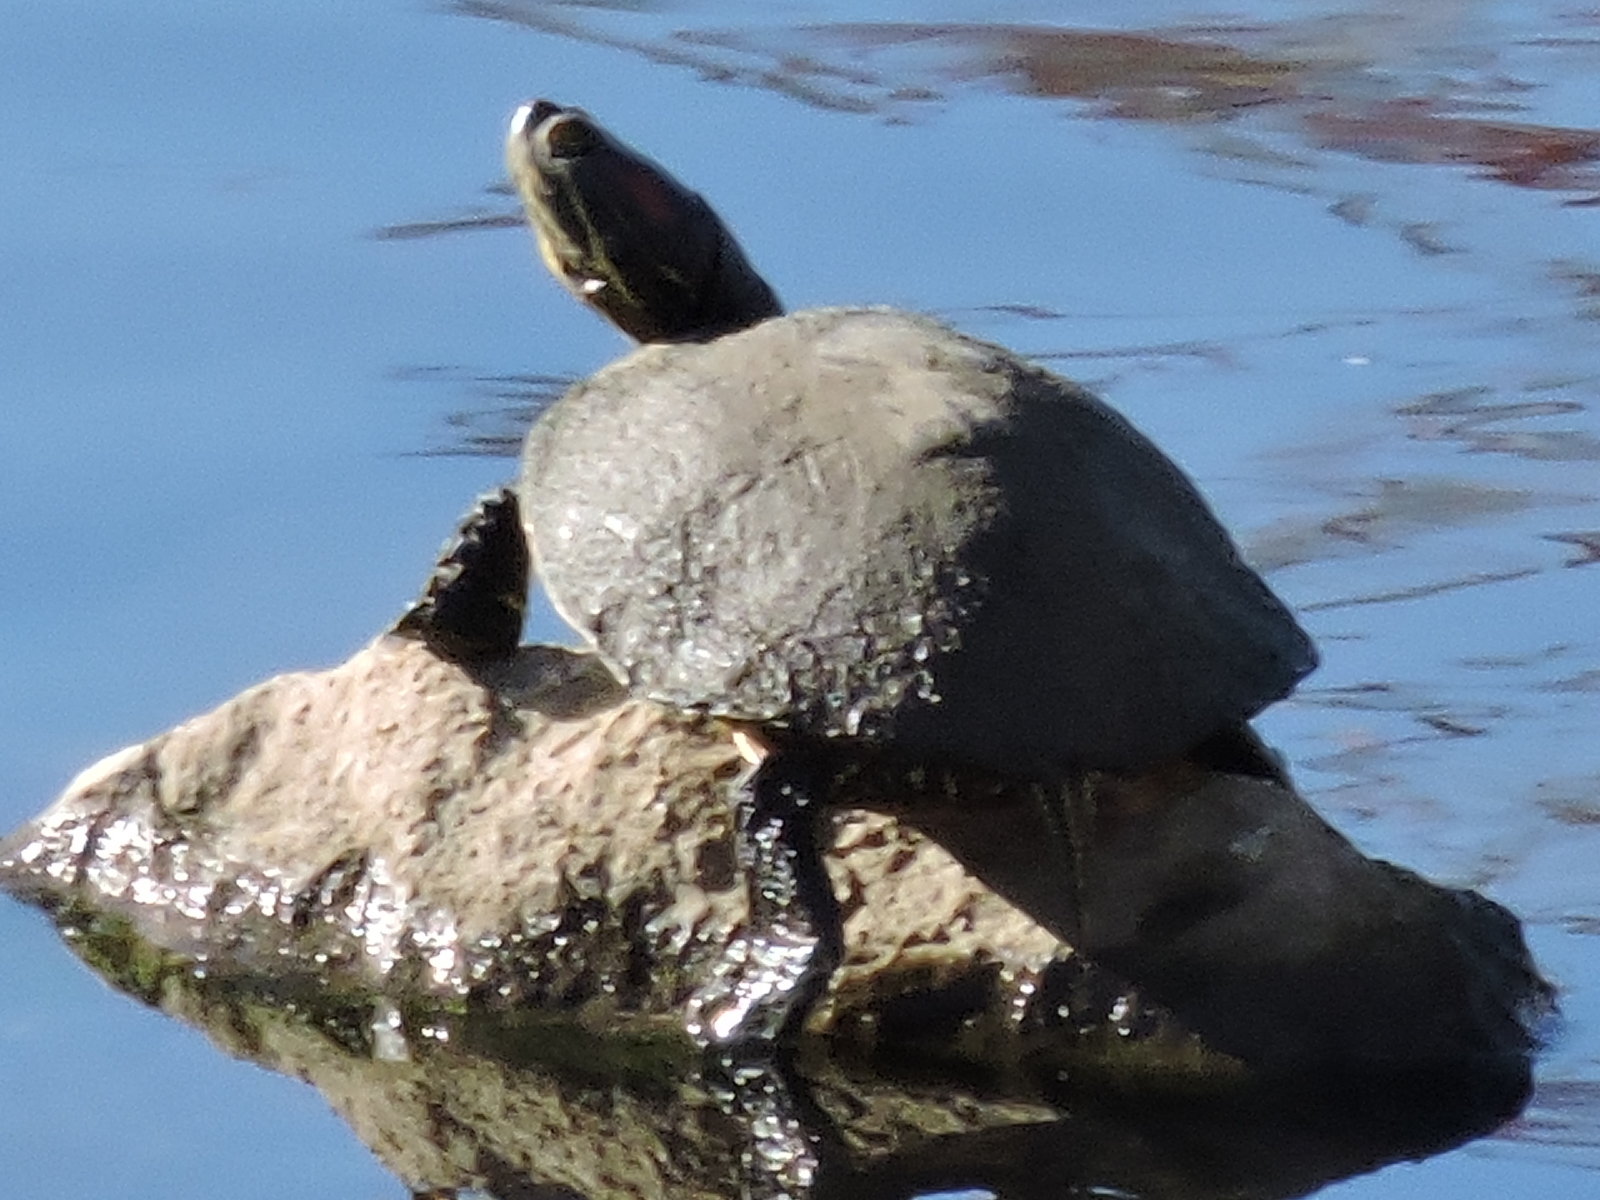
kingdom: Animalia
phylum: Chordata
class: Testudines
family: Emydidae
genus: Trachemys
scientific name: Trachemys scripta
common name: Slider
